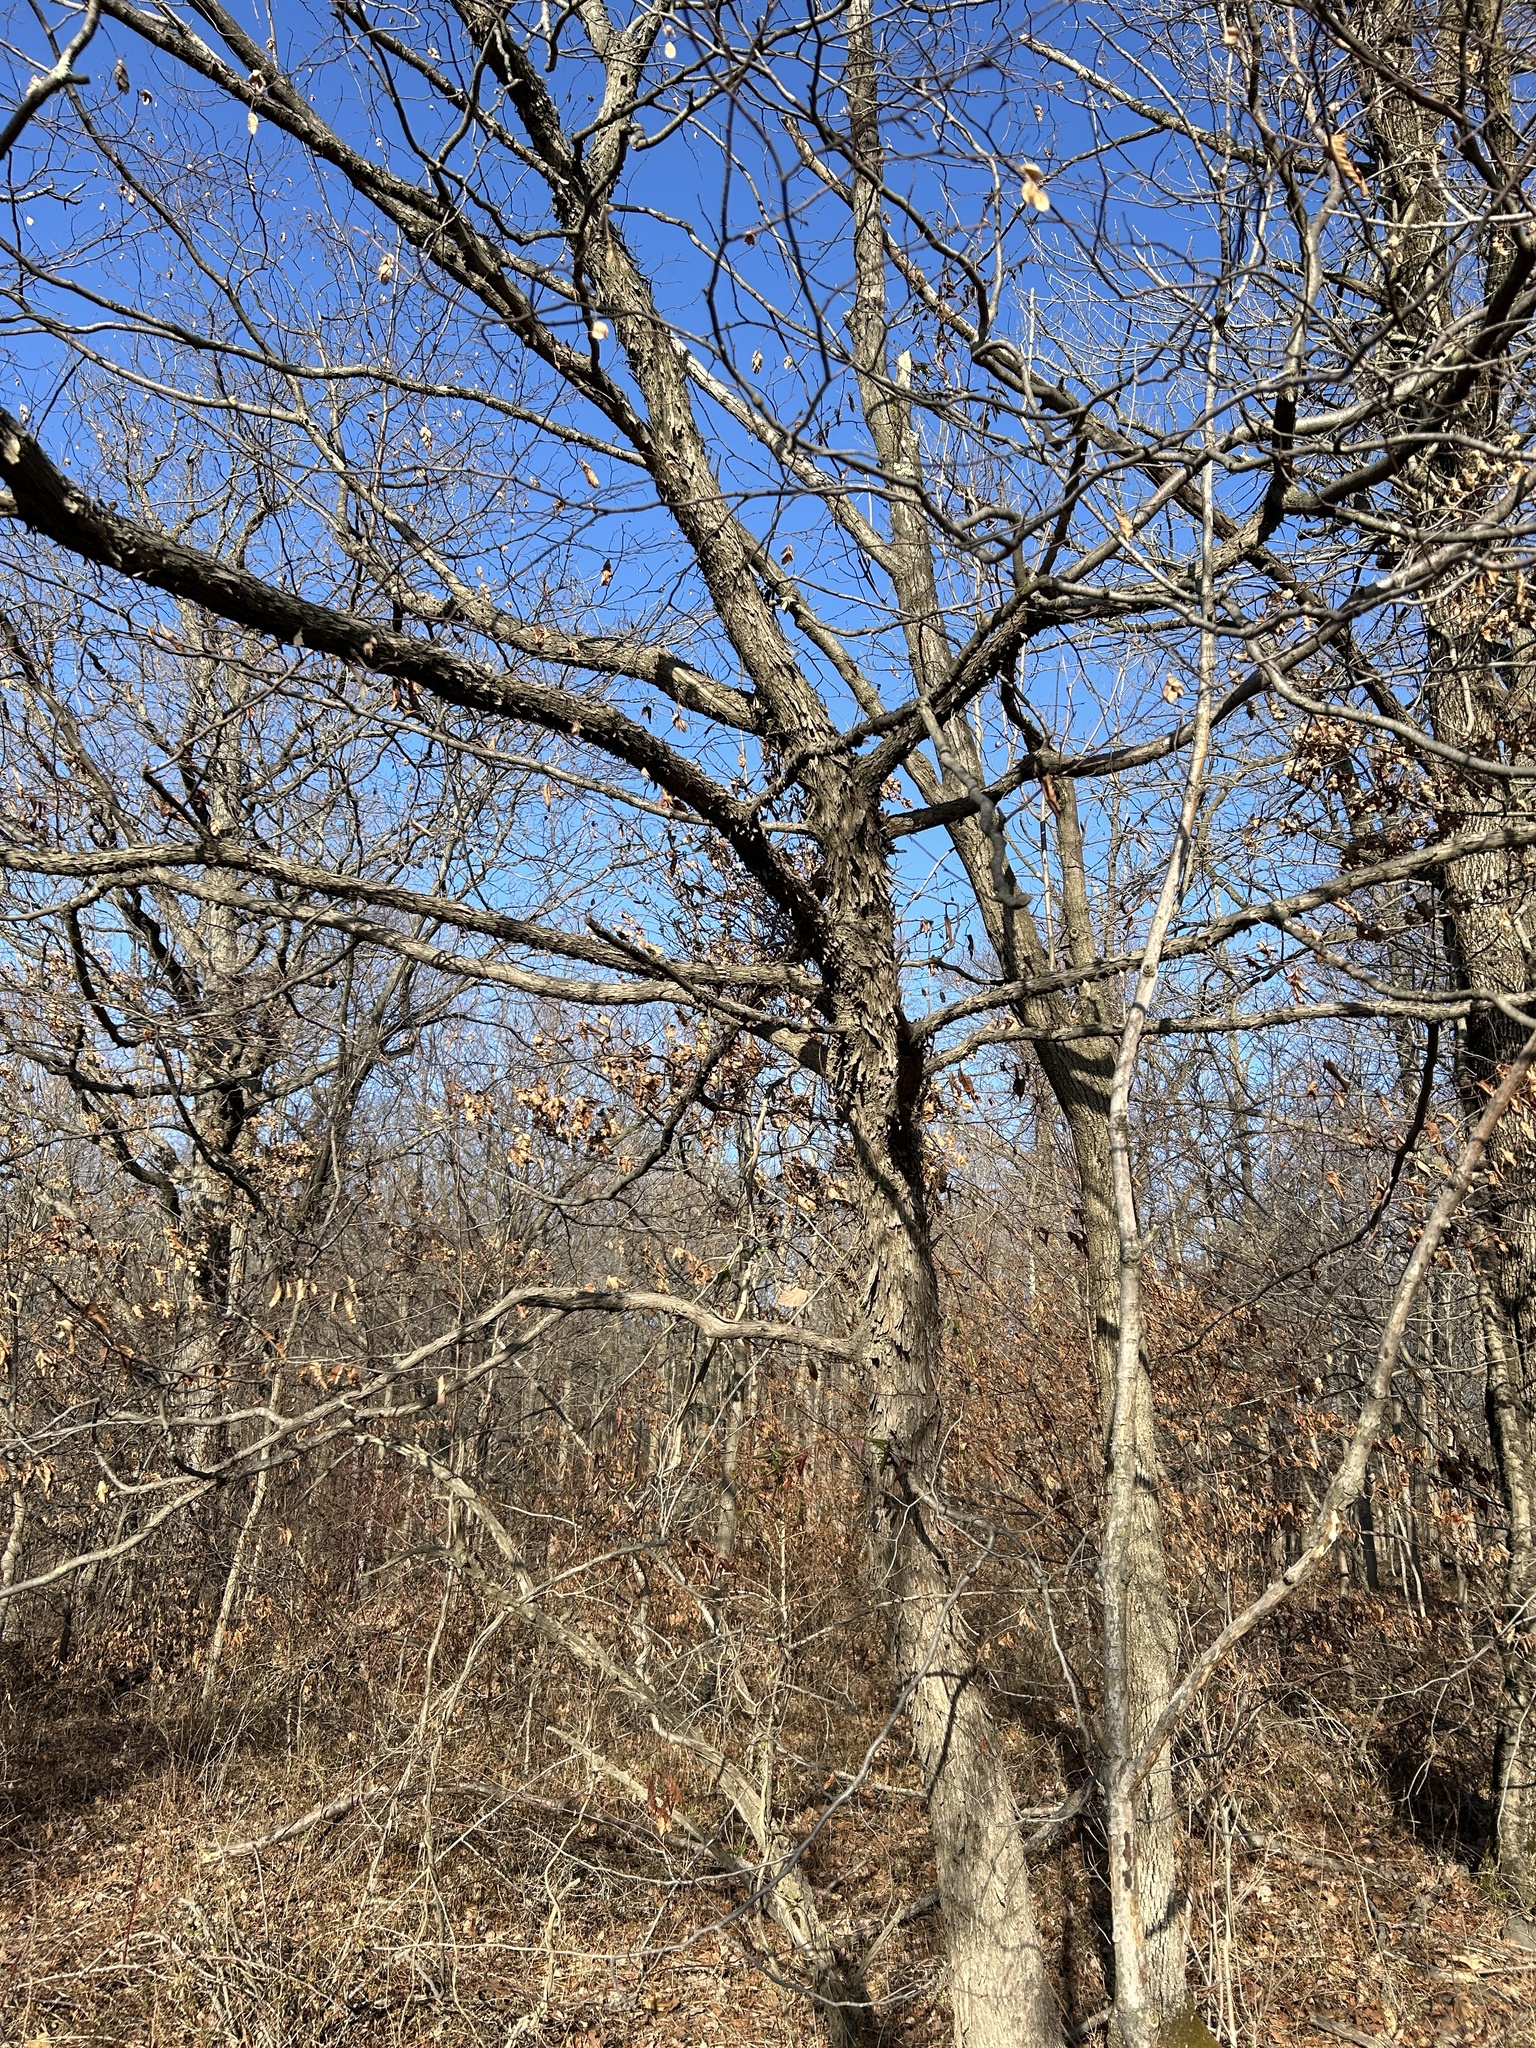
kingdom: Plantae
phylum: Tracheophyta
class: Magnoliopsida
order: Fagales
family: Betulaceae
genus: Ostrya
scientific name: Ostrya virginiana
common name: Ironwood
